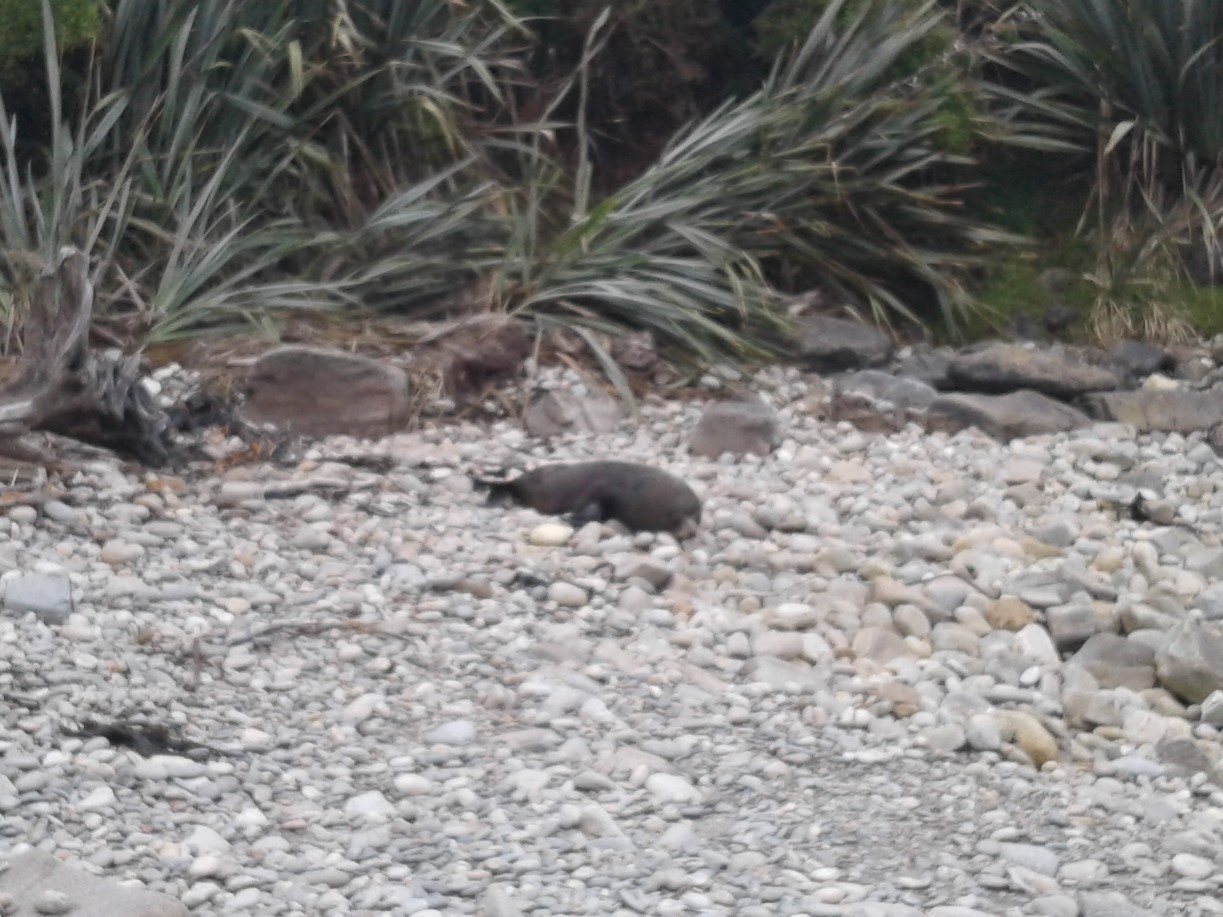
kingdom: Animalia
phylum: Chordata
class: Mammalia
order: Carnivora
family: Otariidae
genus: Arctocephalus
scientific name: Arctocephalus forsteri
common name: New zealand fur seal
